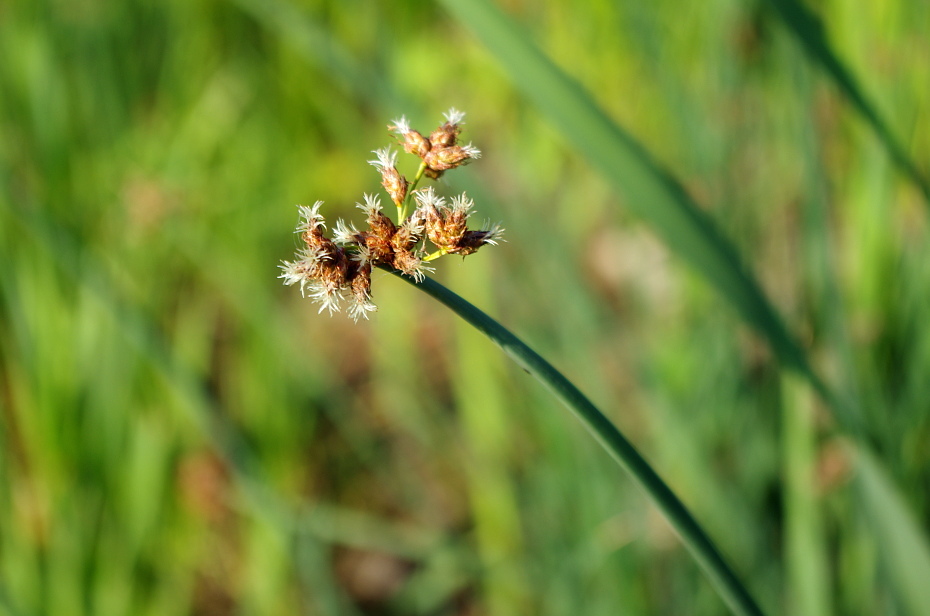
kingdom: Plantae
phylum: Tracheophyta
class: Liliopsida
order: Poales
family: Cyperaceae
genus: Schoenoplectus
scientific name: Schoenoplectus lacustris
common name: Common club-rush
